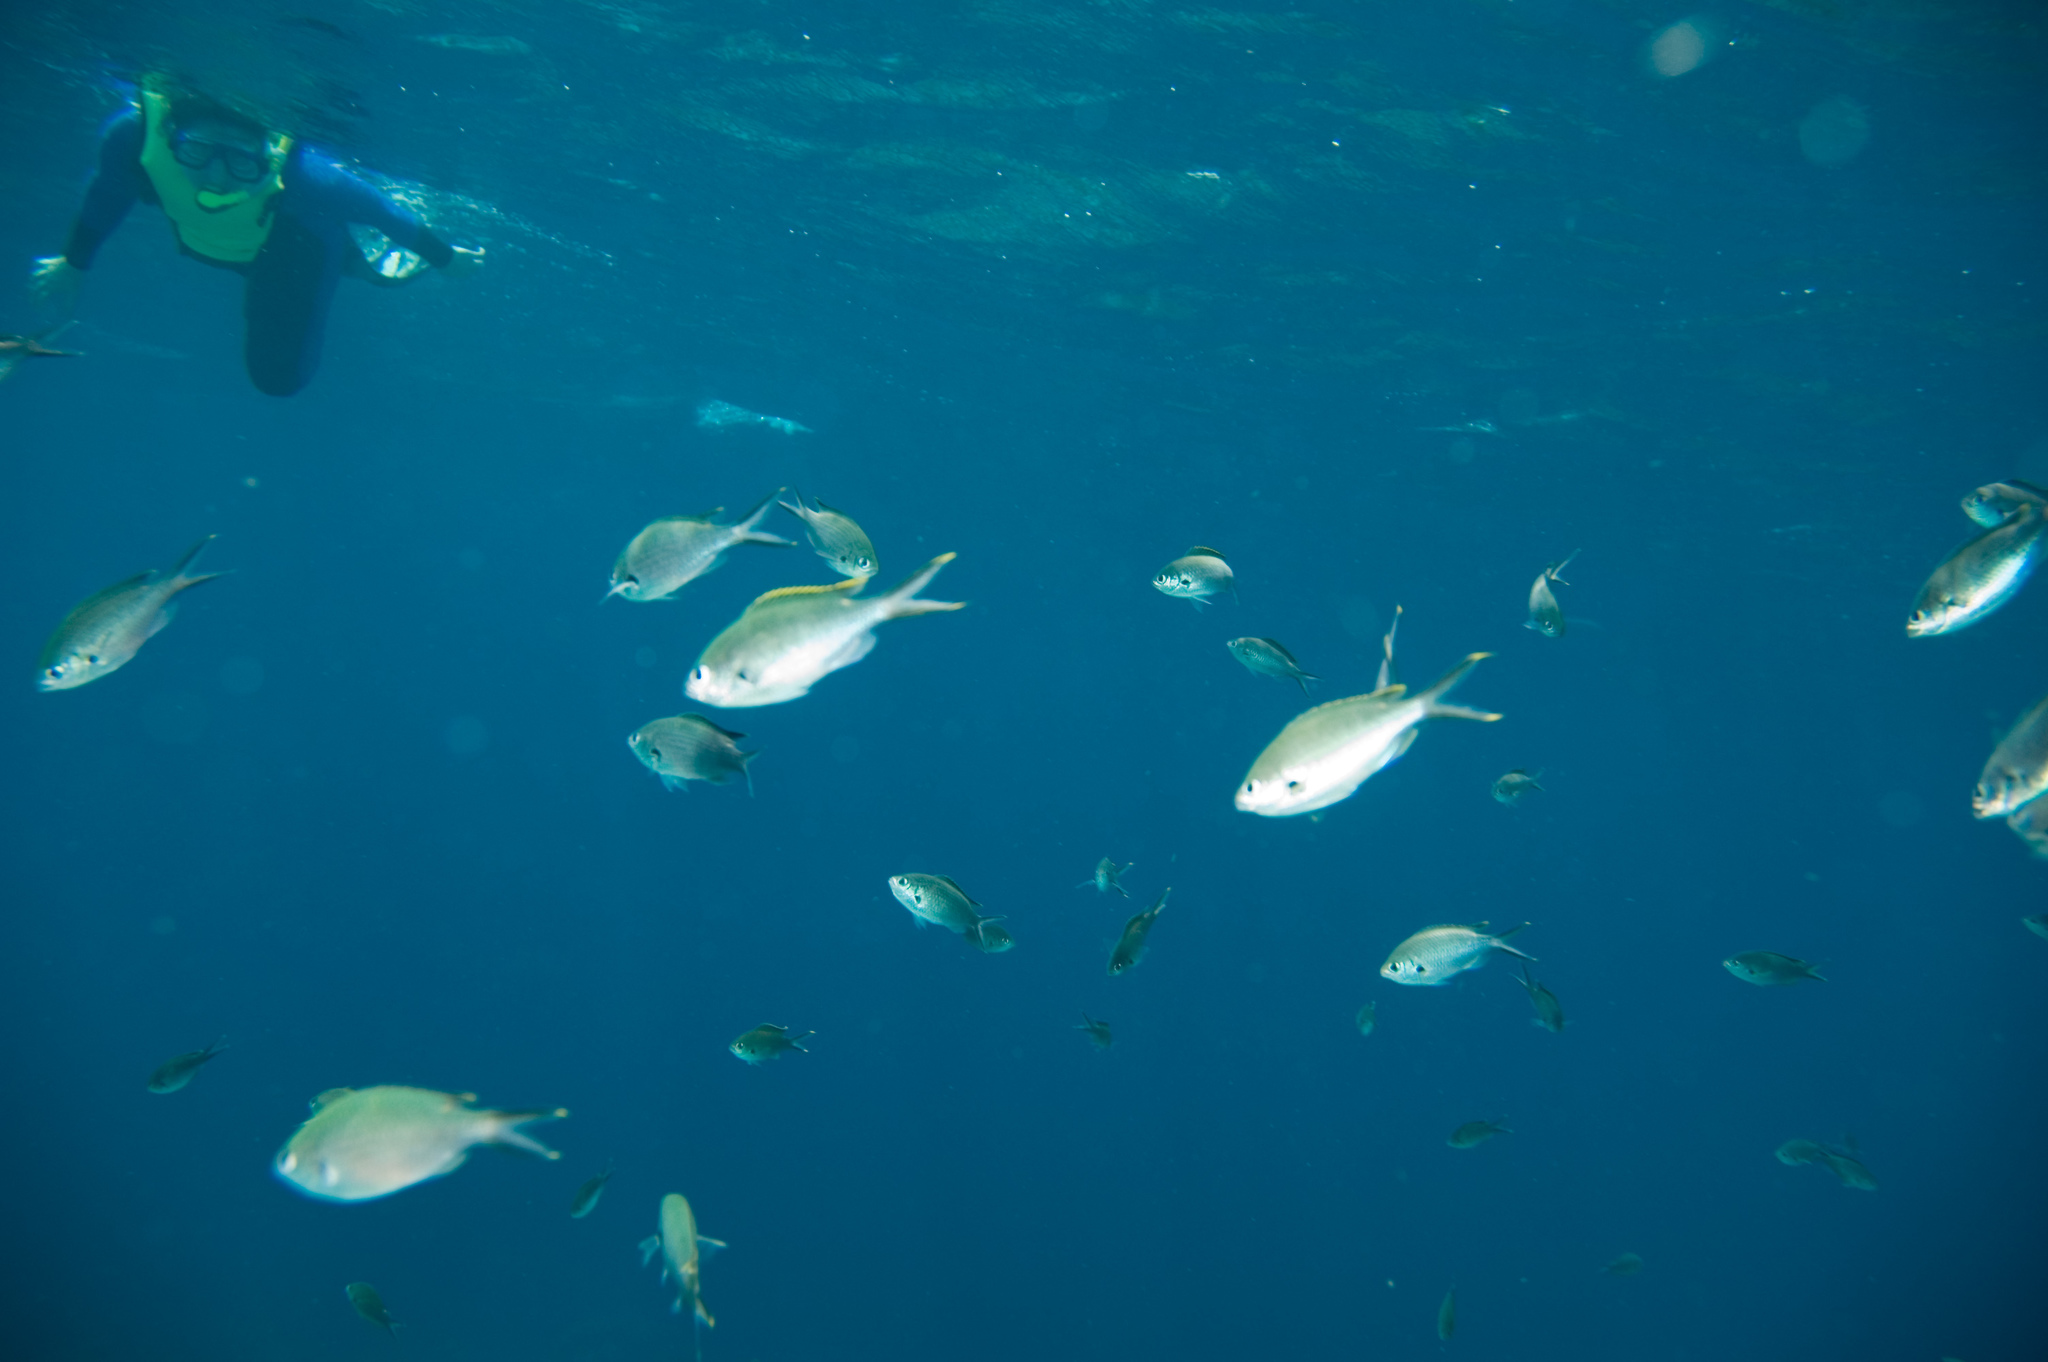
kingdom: Animalia
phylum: Chordata
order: Perciformes
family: Pomacentridae
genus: Chromis
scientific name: Chromis multilineata
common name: Brown chromis
